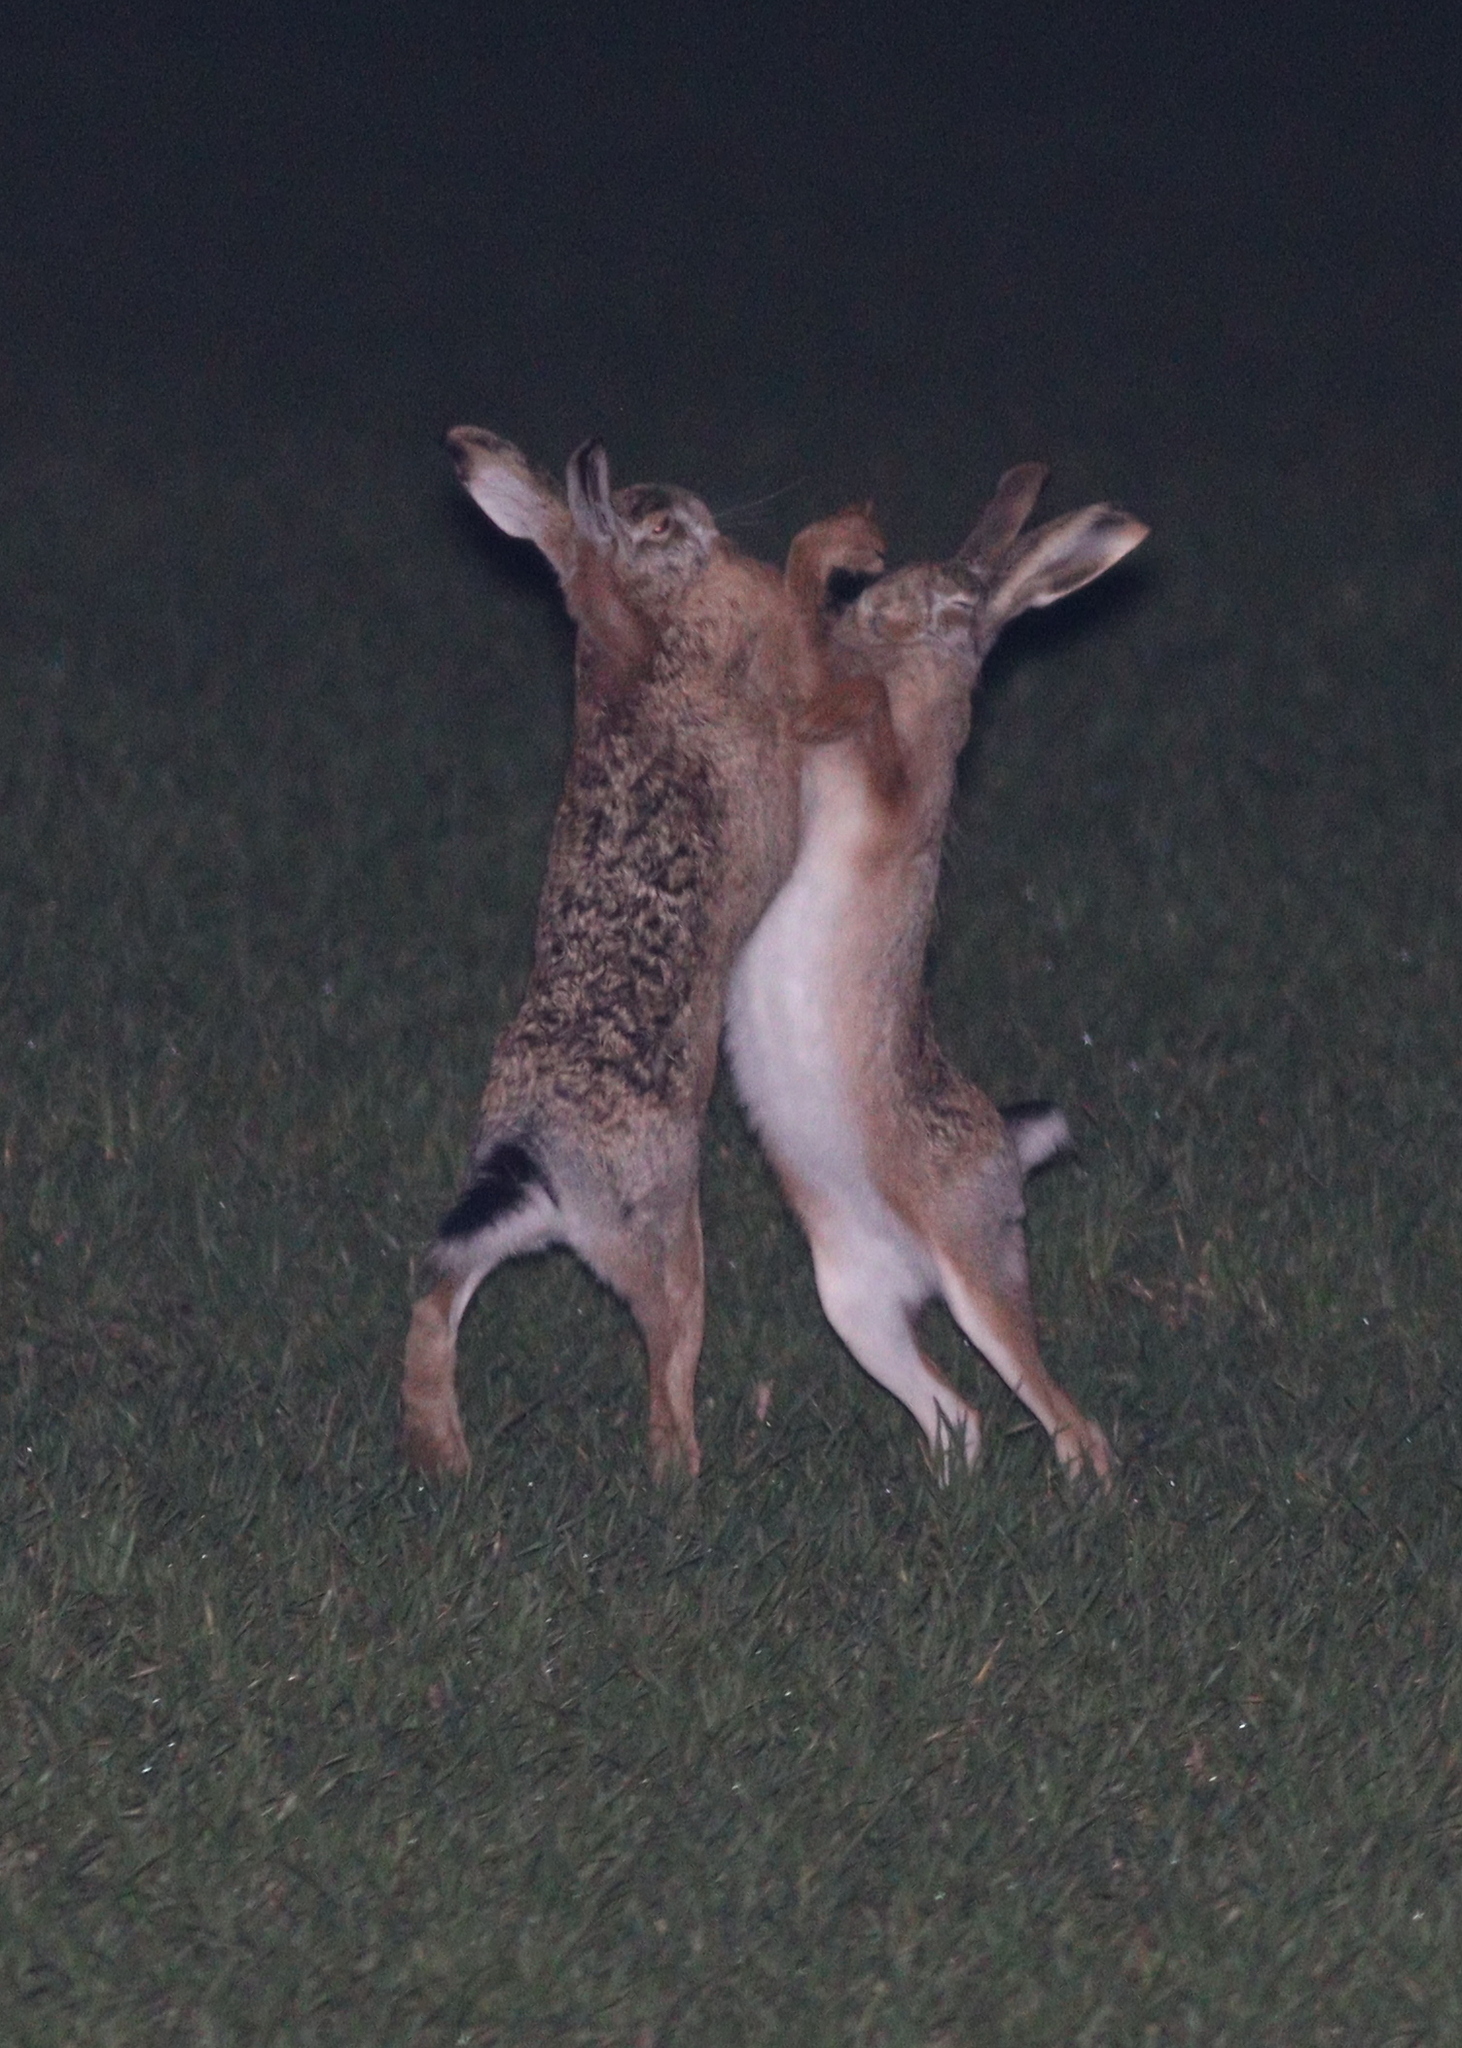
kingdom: Animalia
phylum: Chordata
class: Mammalia
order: Lagomorpha
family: Leporidae
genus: Lepus
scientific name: Lepus europaeus
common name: European hare
